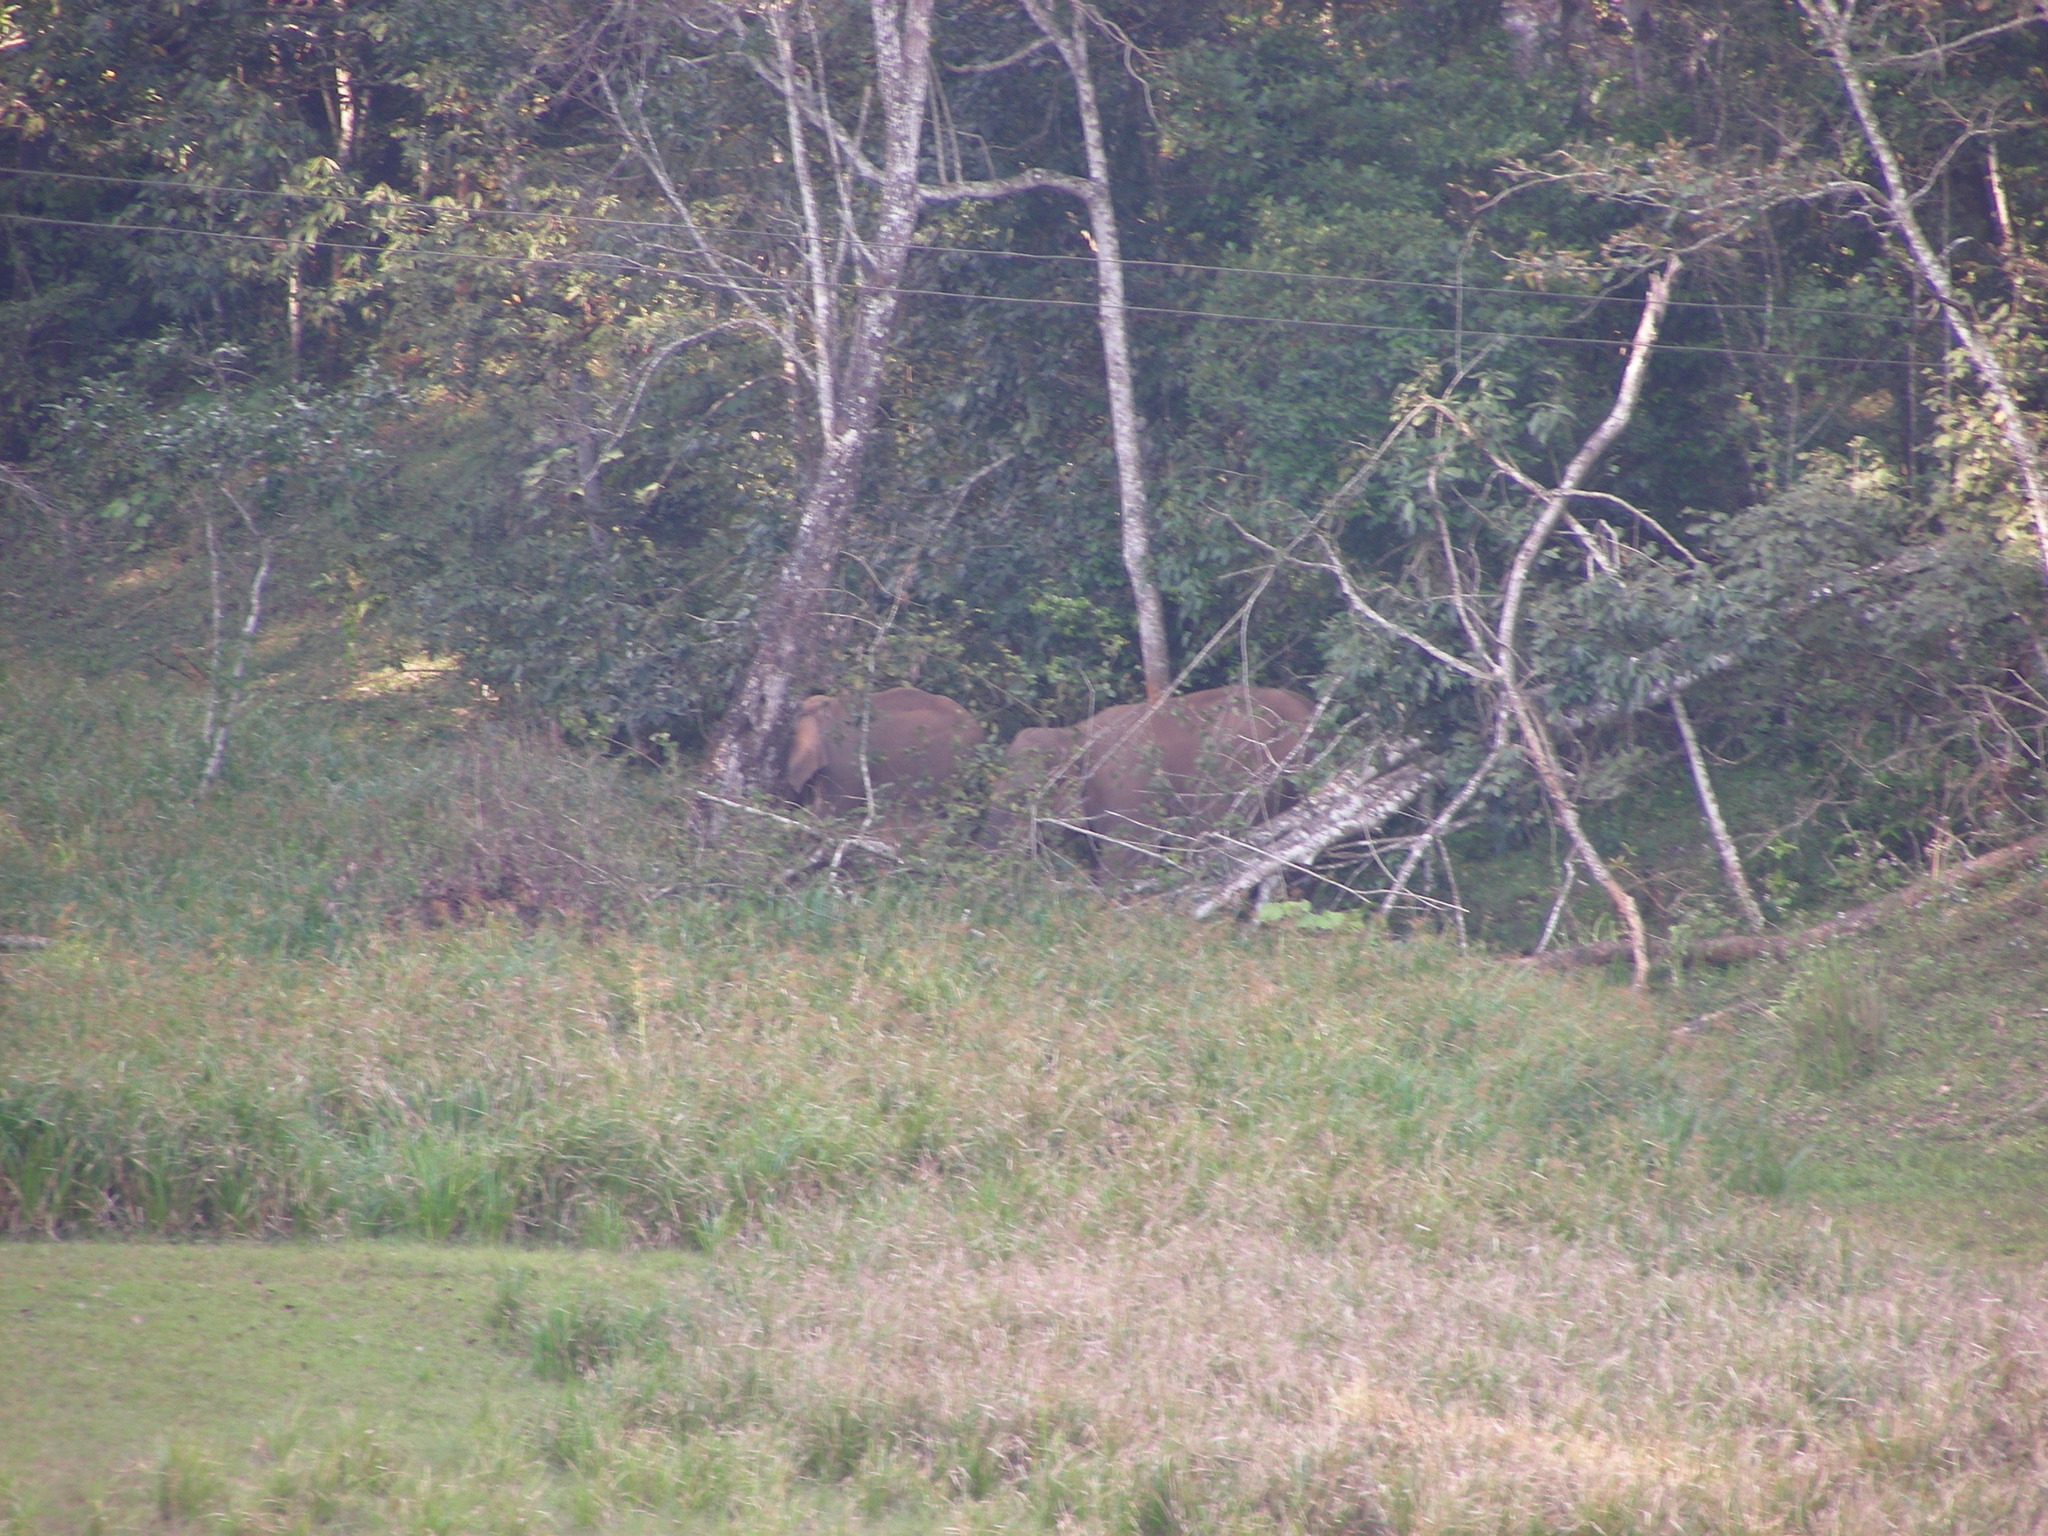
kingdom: Animalia
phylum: Chordata
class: Mammalia
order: Proboscidea
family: Elephantidae
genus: Elephas
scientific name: Elephas maximus
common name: Asian elephant
